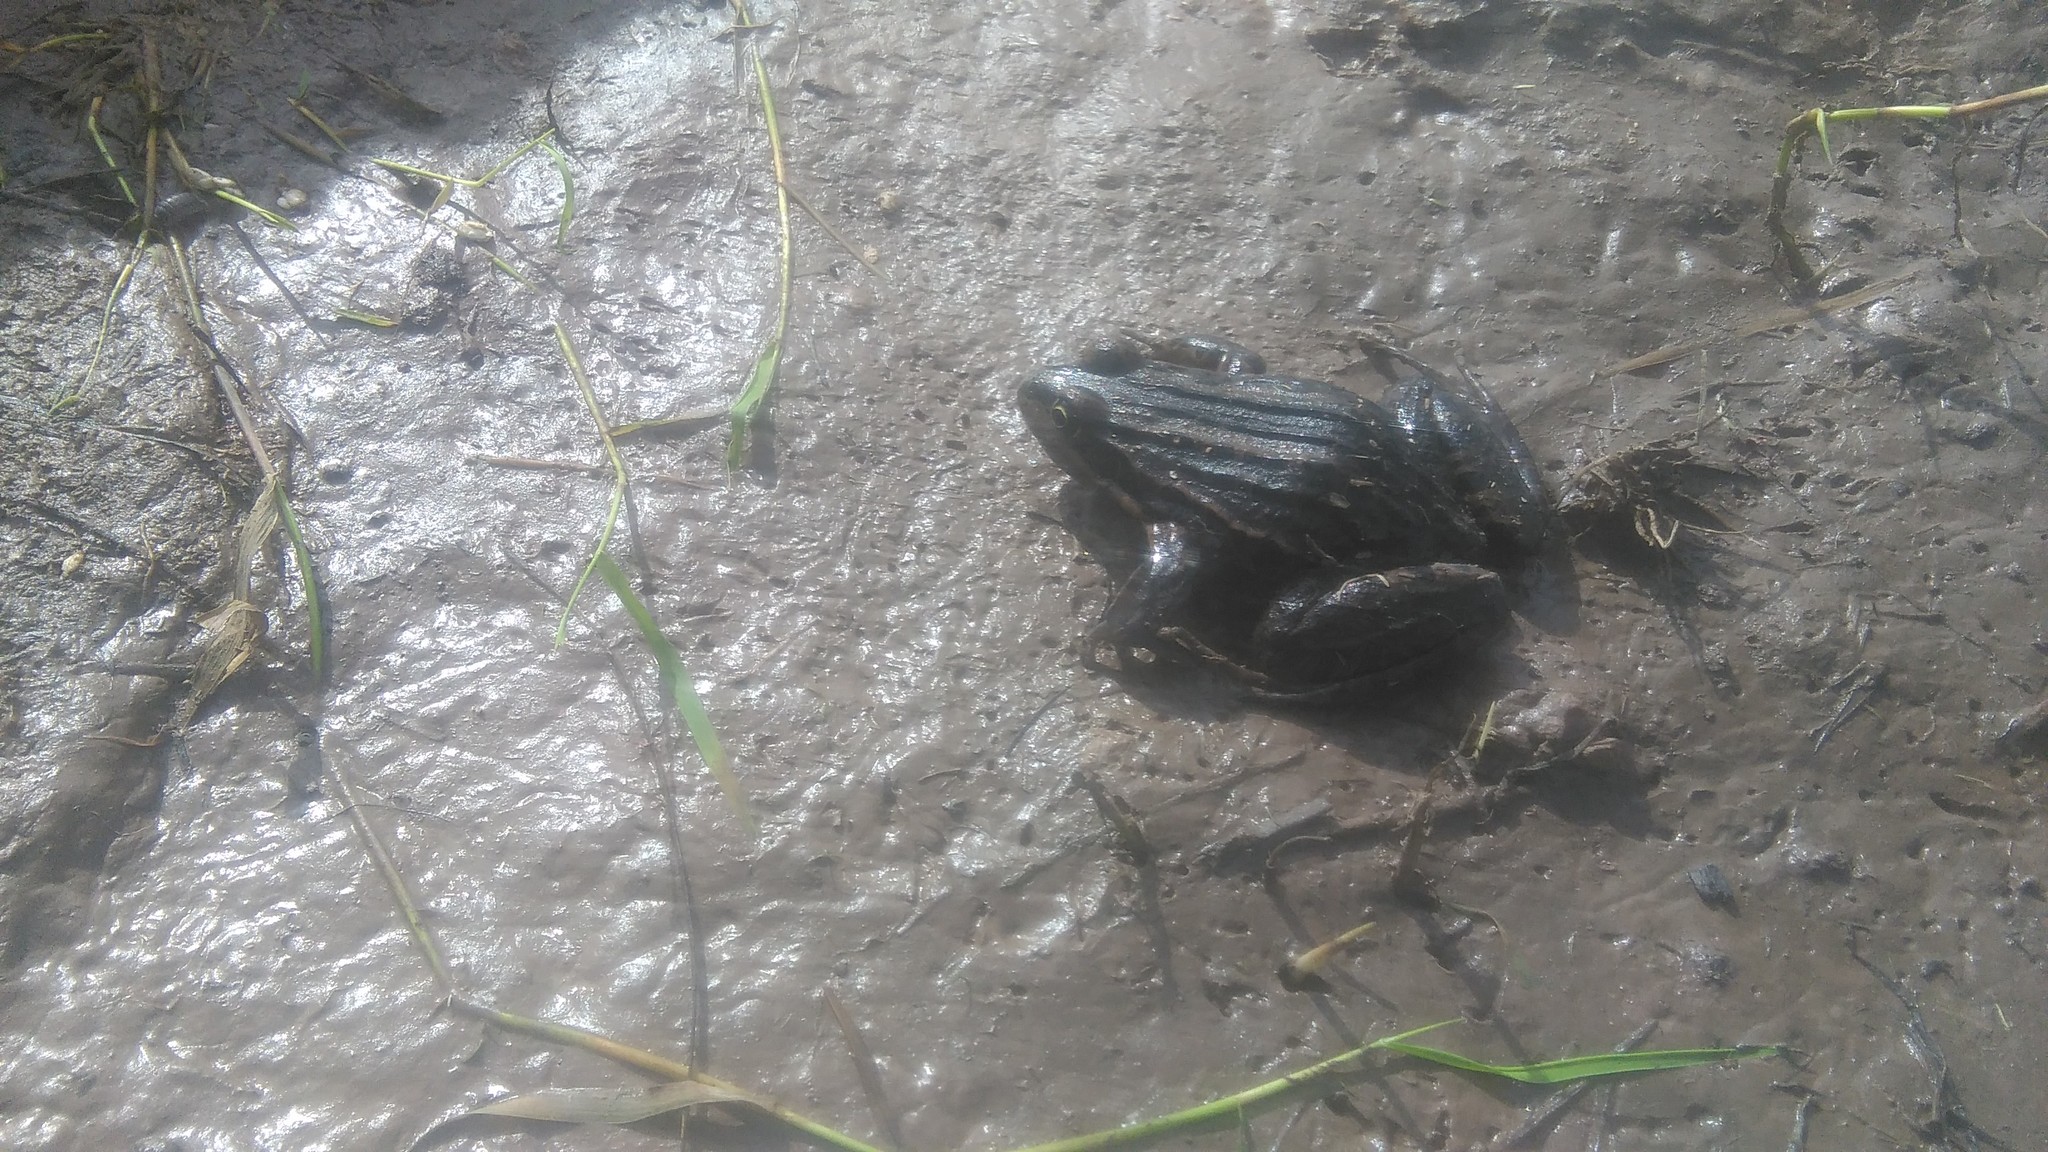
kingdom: Animalia
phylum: Chordata
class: Amphibia
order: Anura
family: Leptodactylidae
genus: Leptodactylus
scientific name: Leptodactylus luctator
